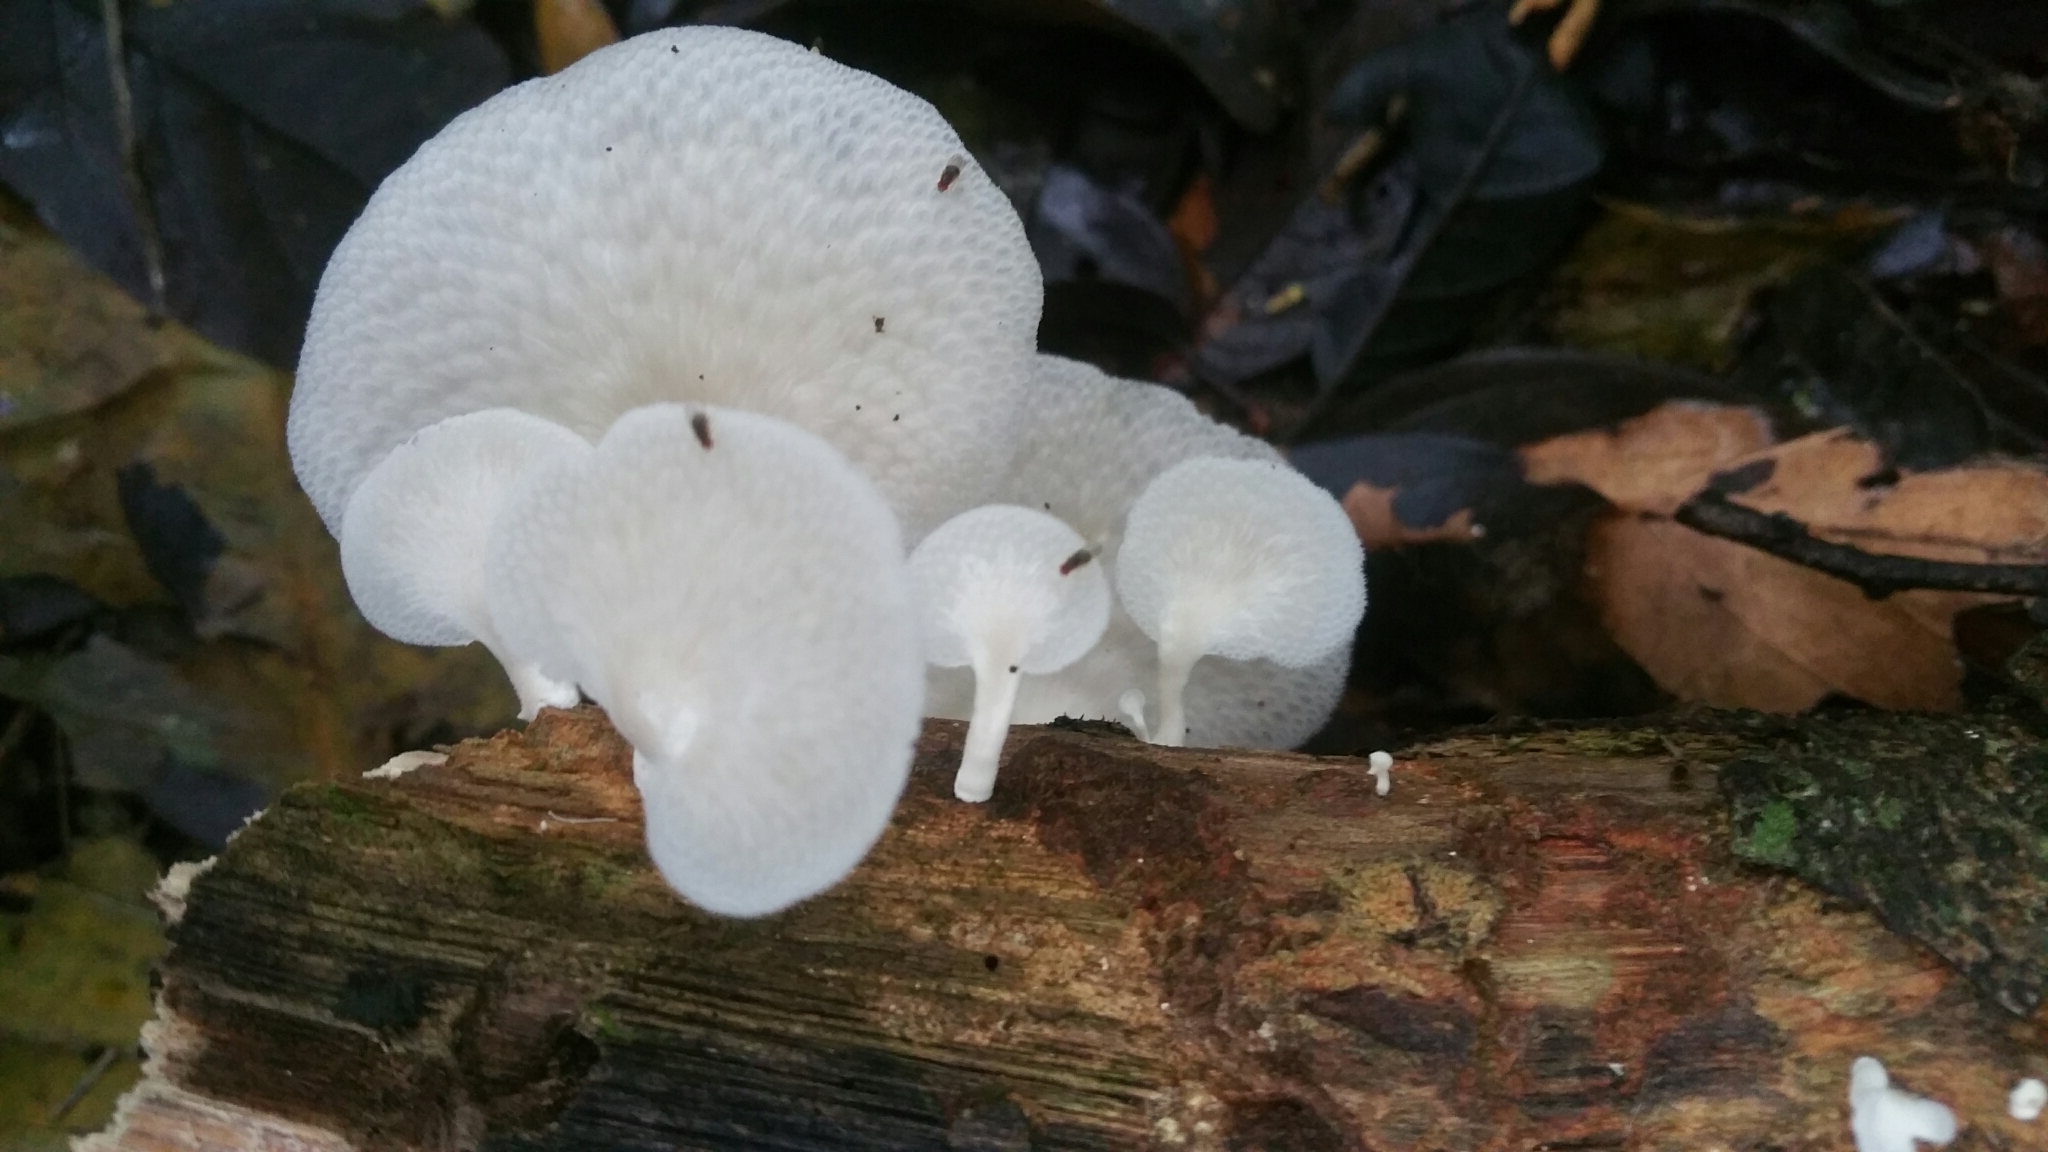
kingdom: Fungi
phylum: Basidiomycota
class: Agaricomycetes
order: Polyporales
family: Polyporaceae
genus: Favolus
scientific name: Favolus tenuiculus
